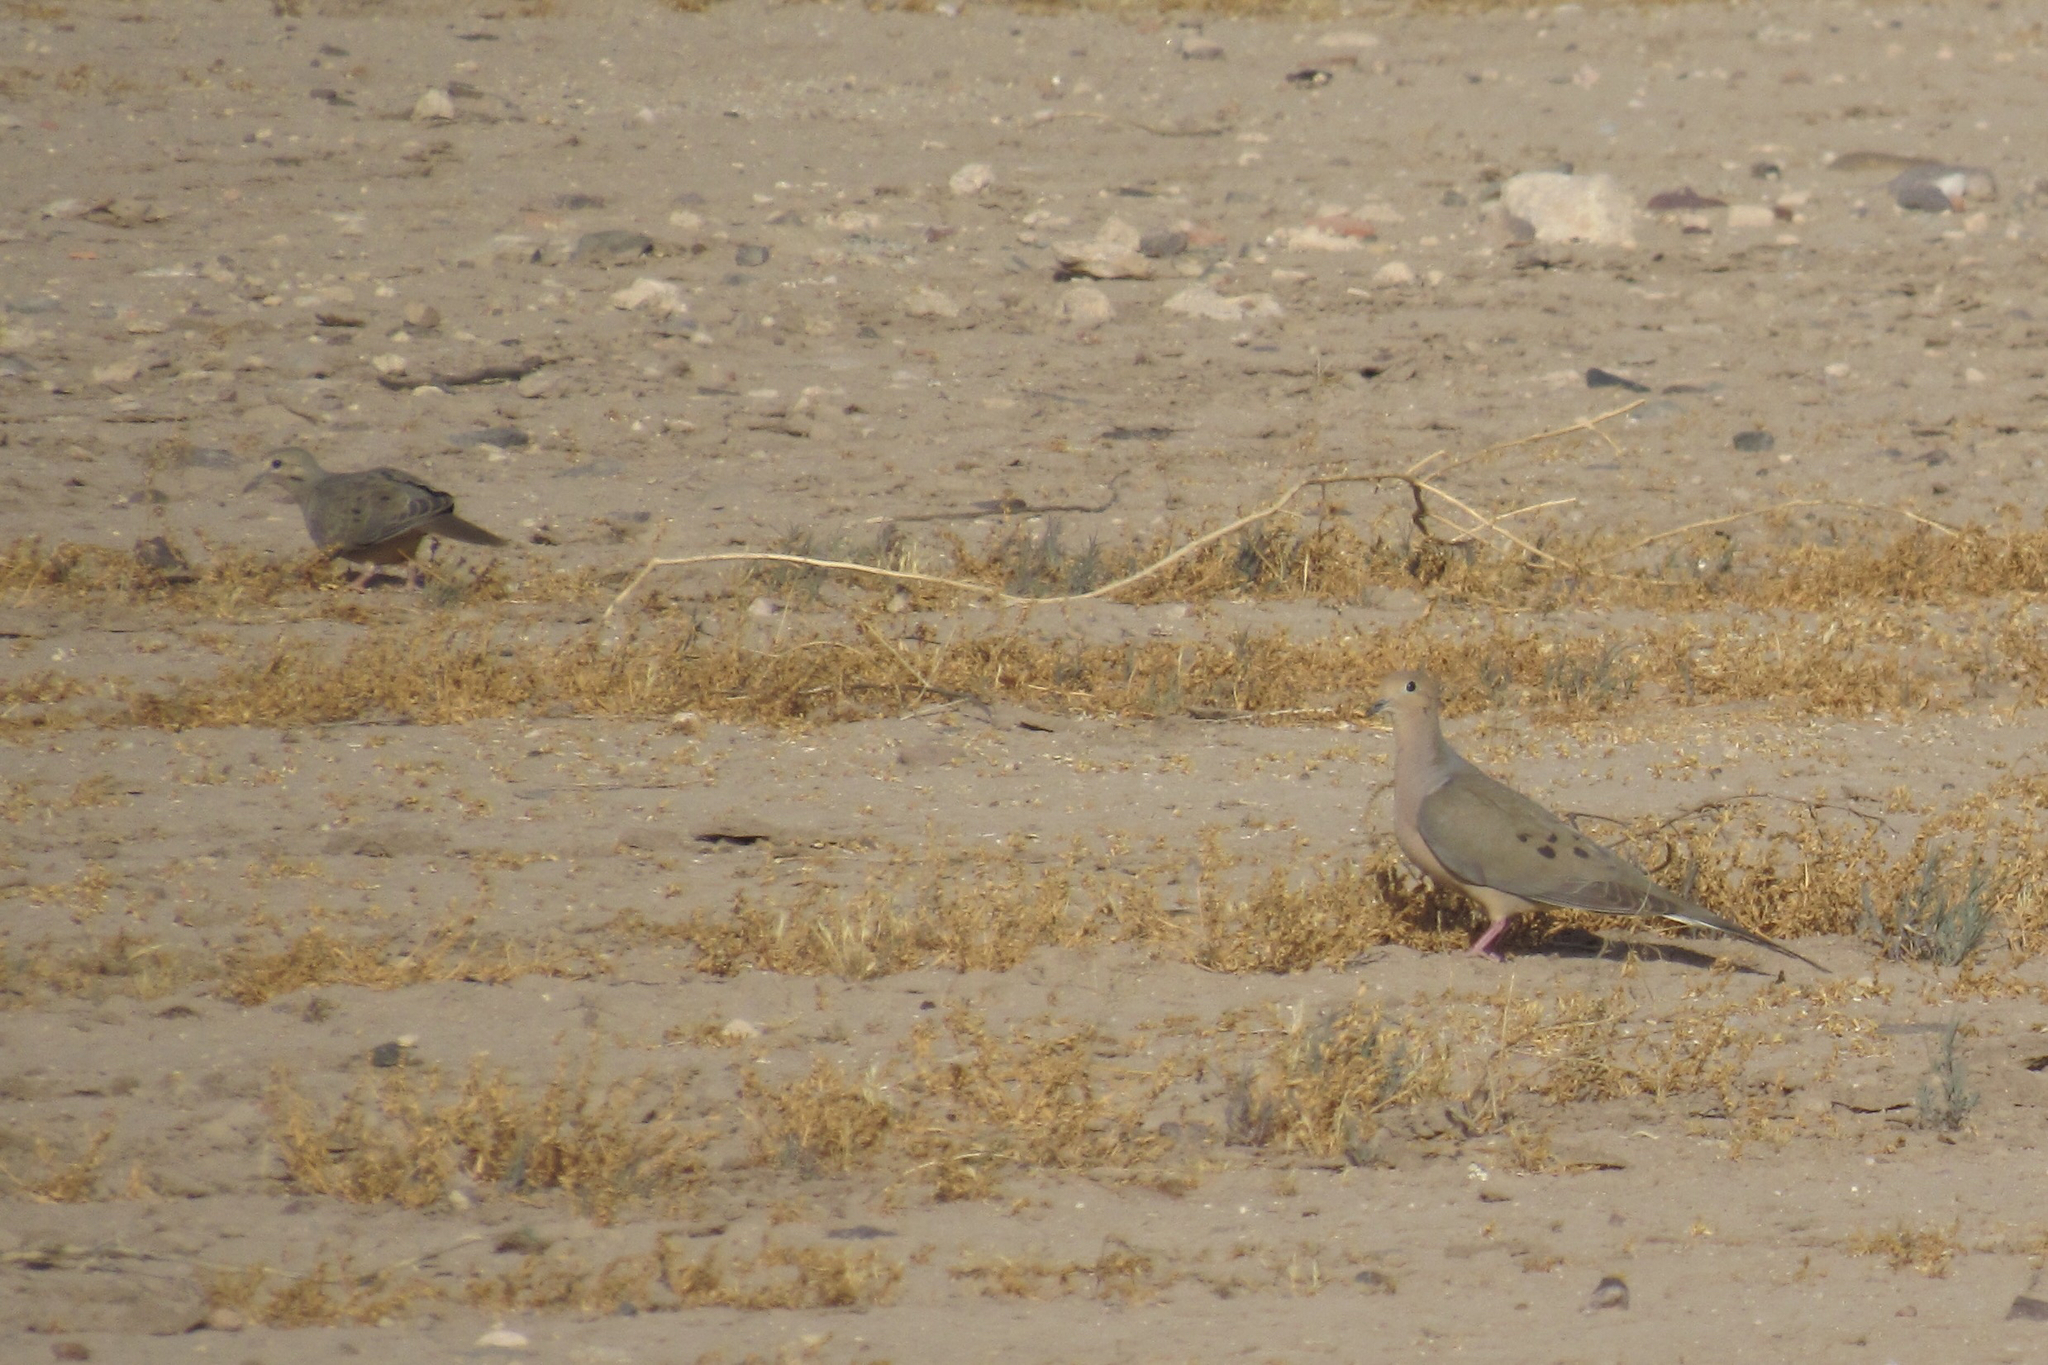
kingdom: Animalia
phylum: Chordata
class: Aves
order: Columbiformes
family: Columbidae
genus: Zenaida
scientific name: Zenaida macroura
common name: Mourning dove
